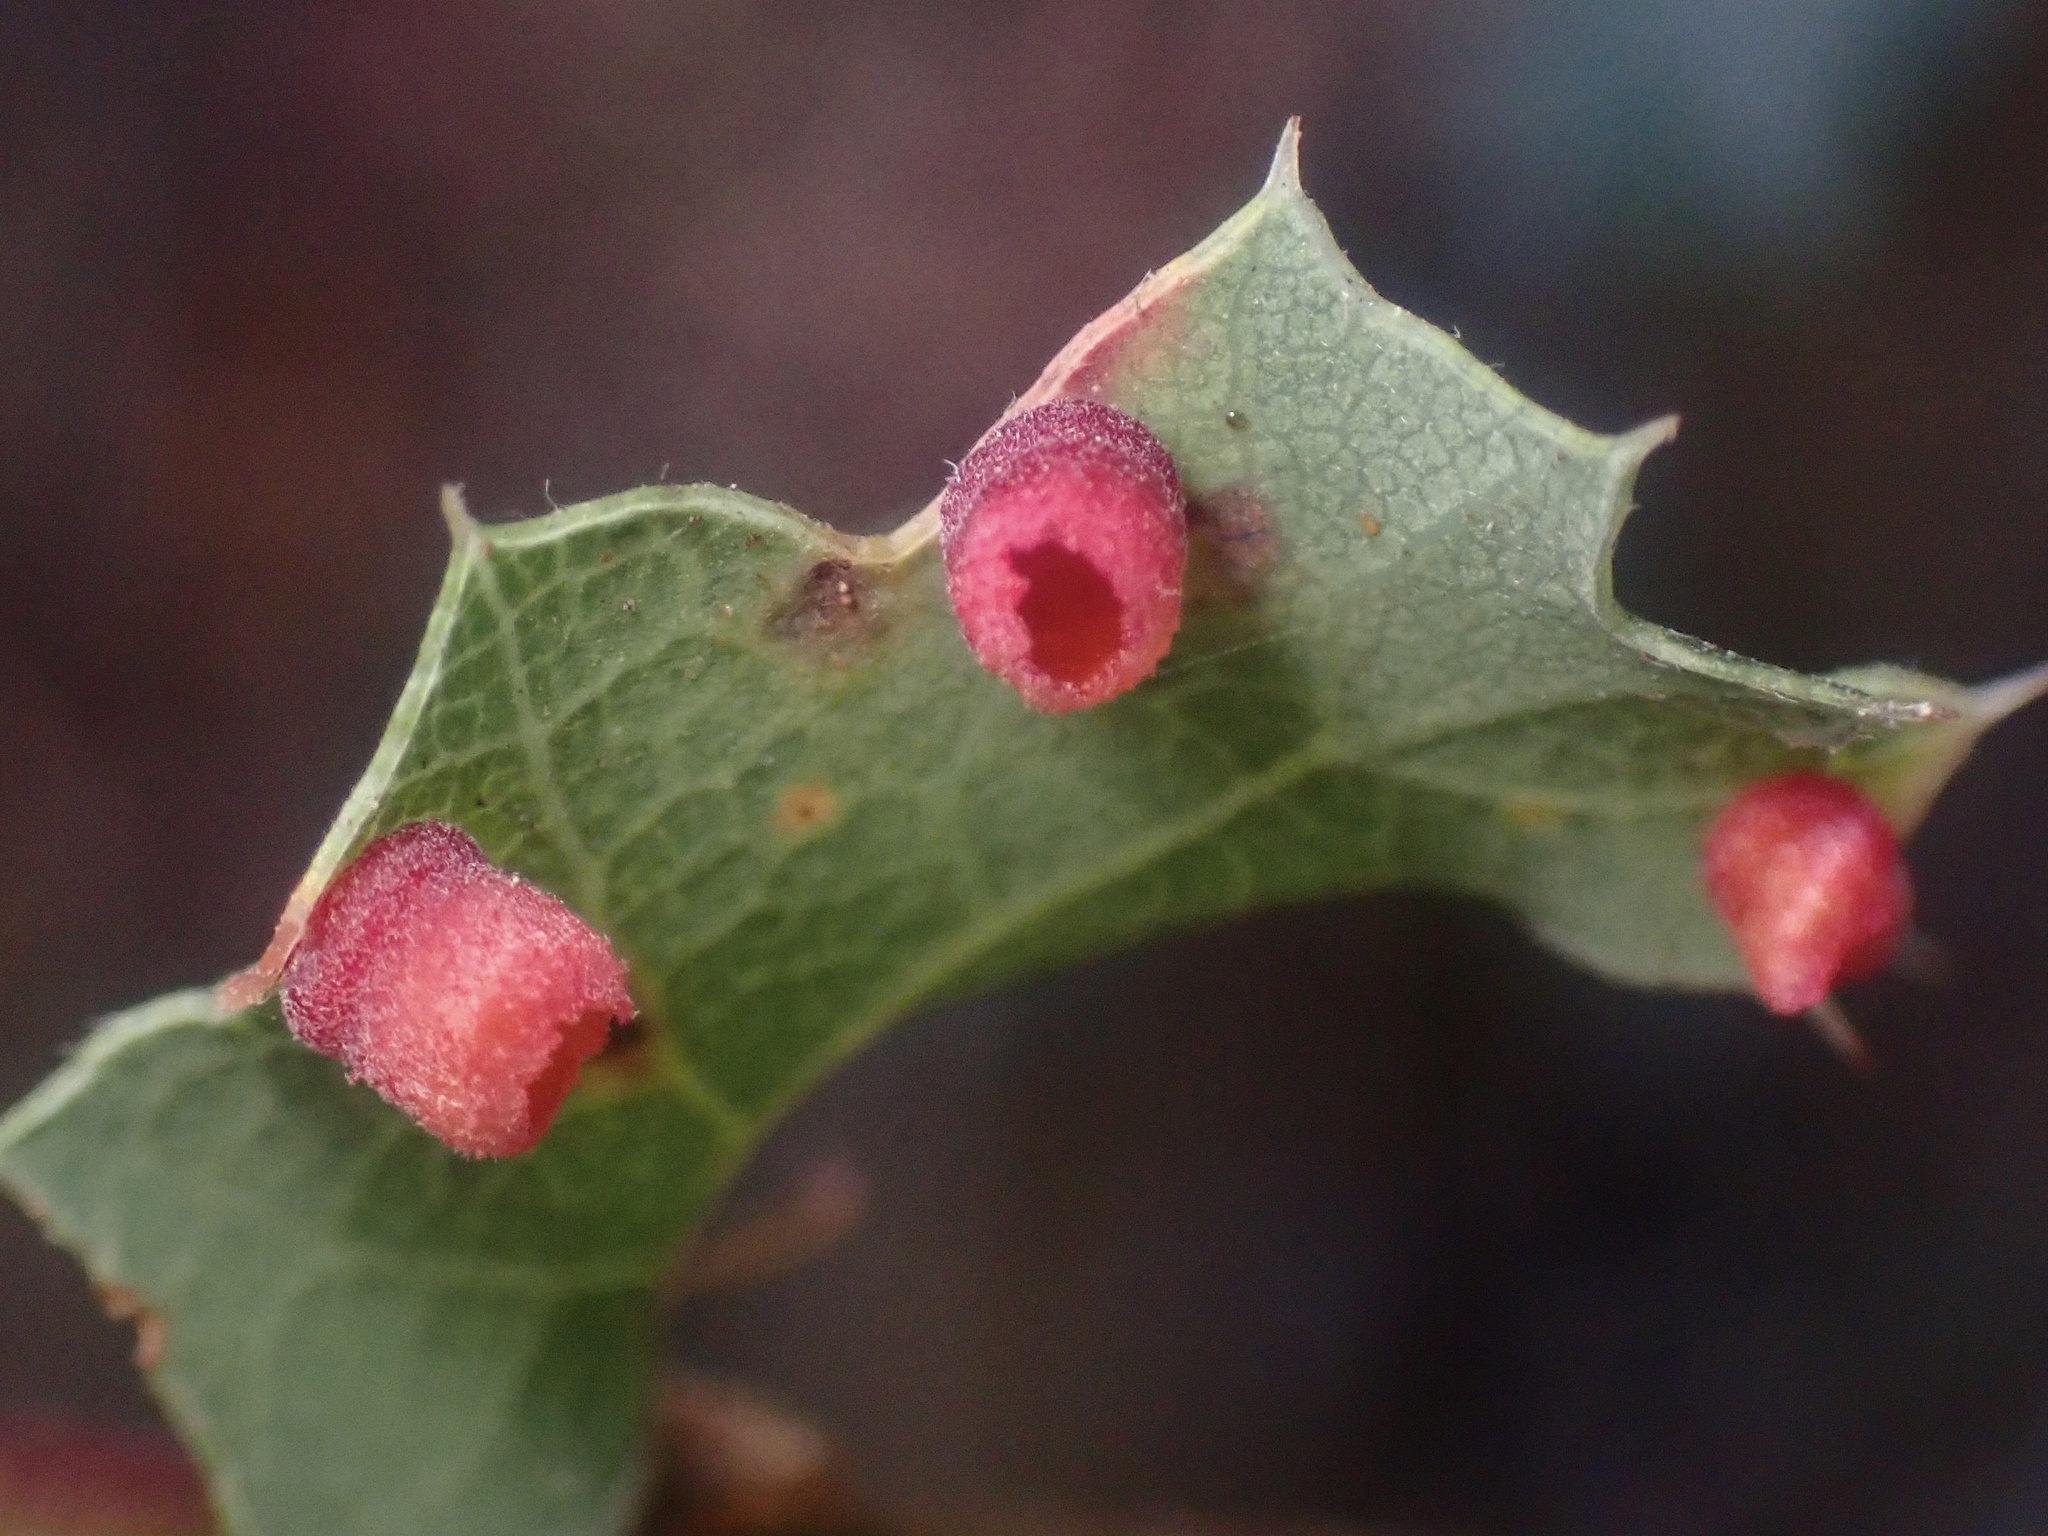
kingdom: Animalia
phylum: Arthropoda
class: Insecta
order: Hymenoptera
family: Cynipidae
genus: Phylloteras
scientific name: Phylloteras
